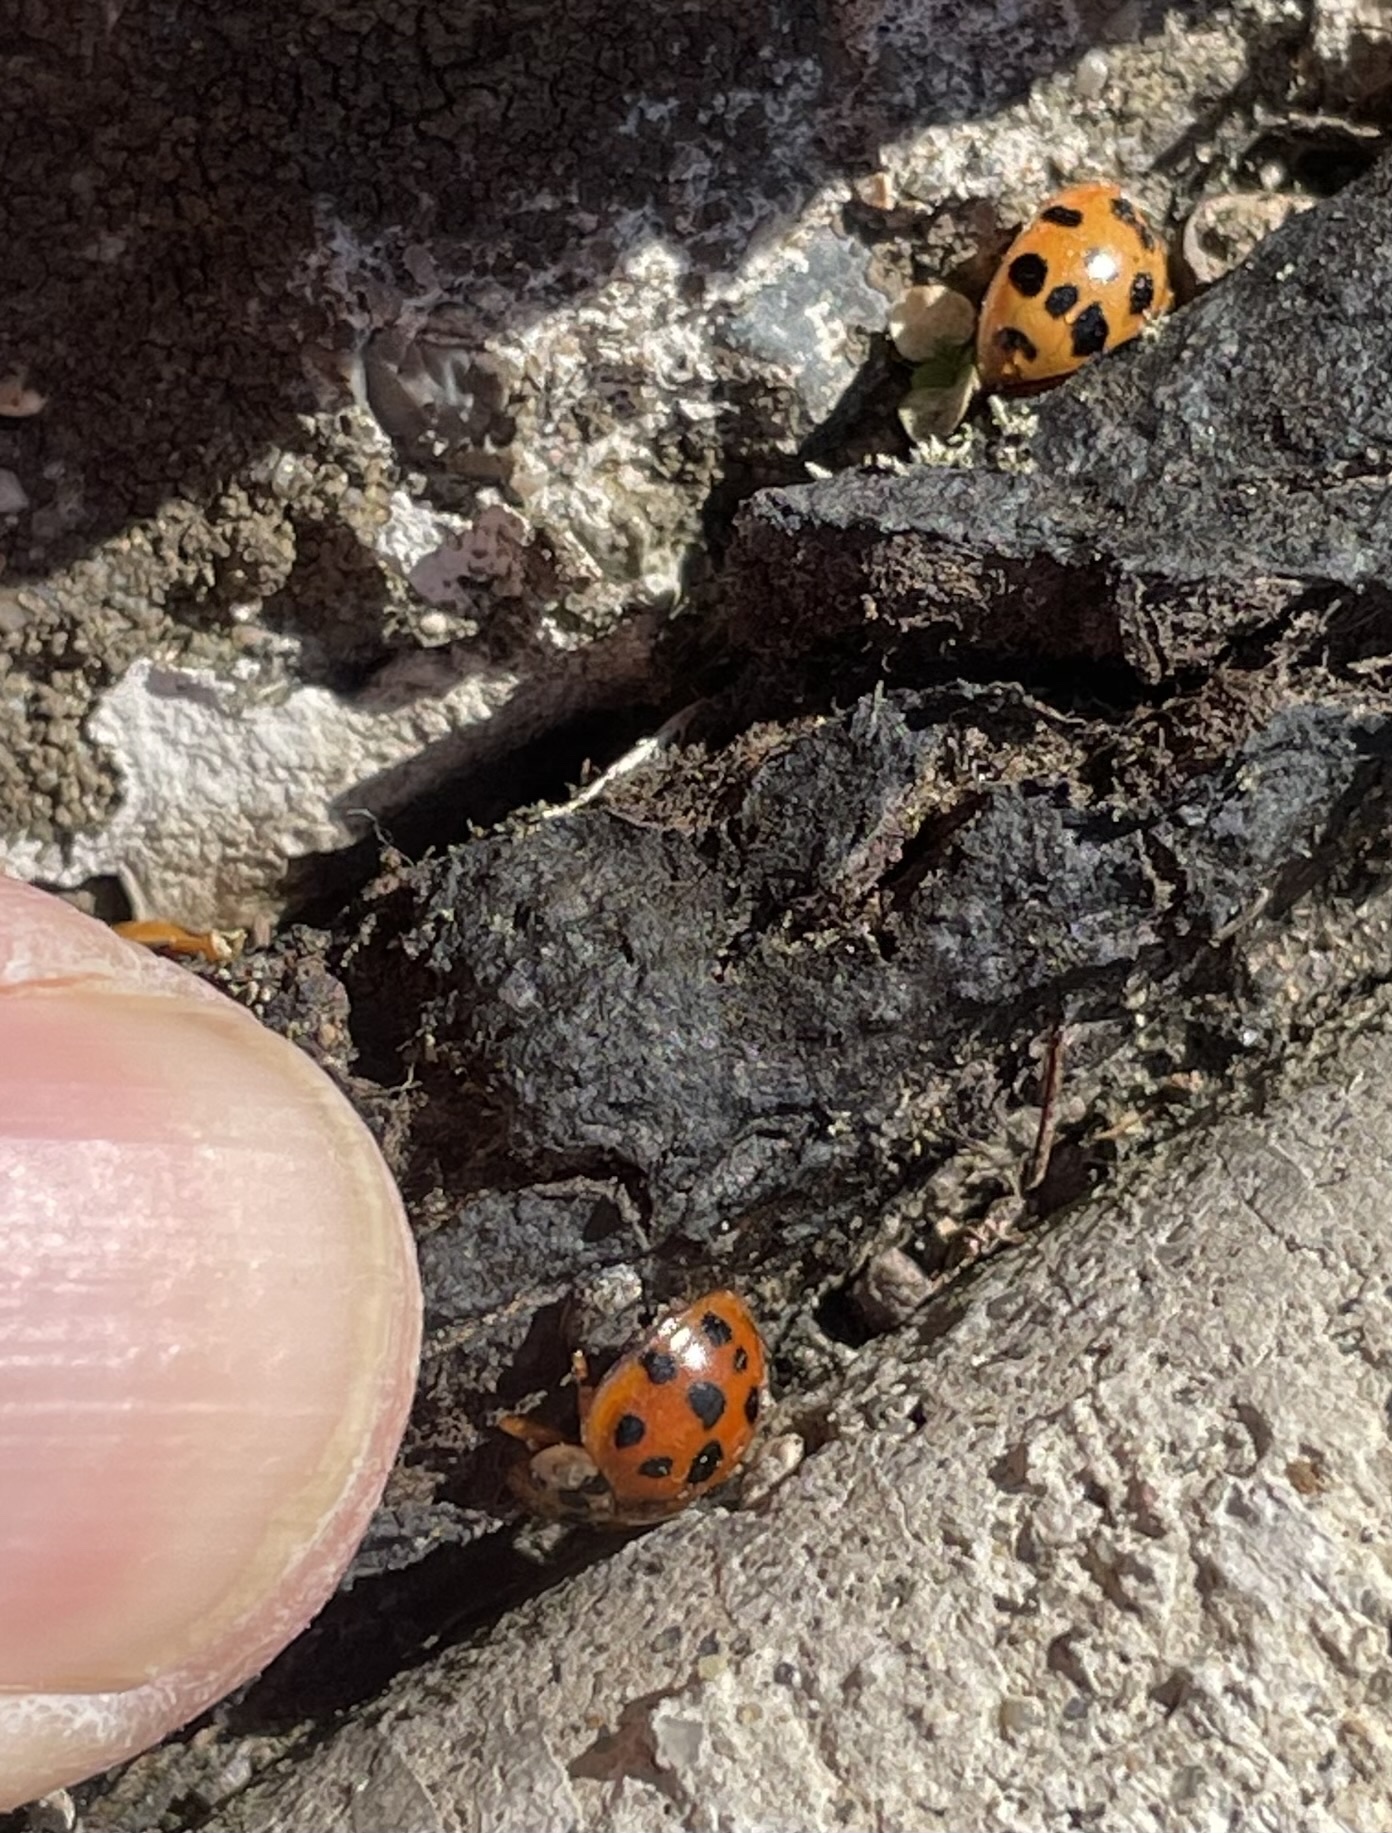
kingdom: Animalia
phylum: Arthropoda
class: Insecta
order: Coleoptera
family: Coccinellidae
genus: Harmonia
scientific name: Harmonia axyridis
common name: Harlequin ladybird
